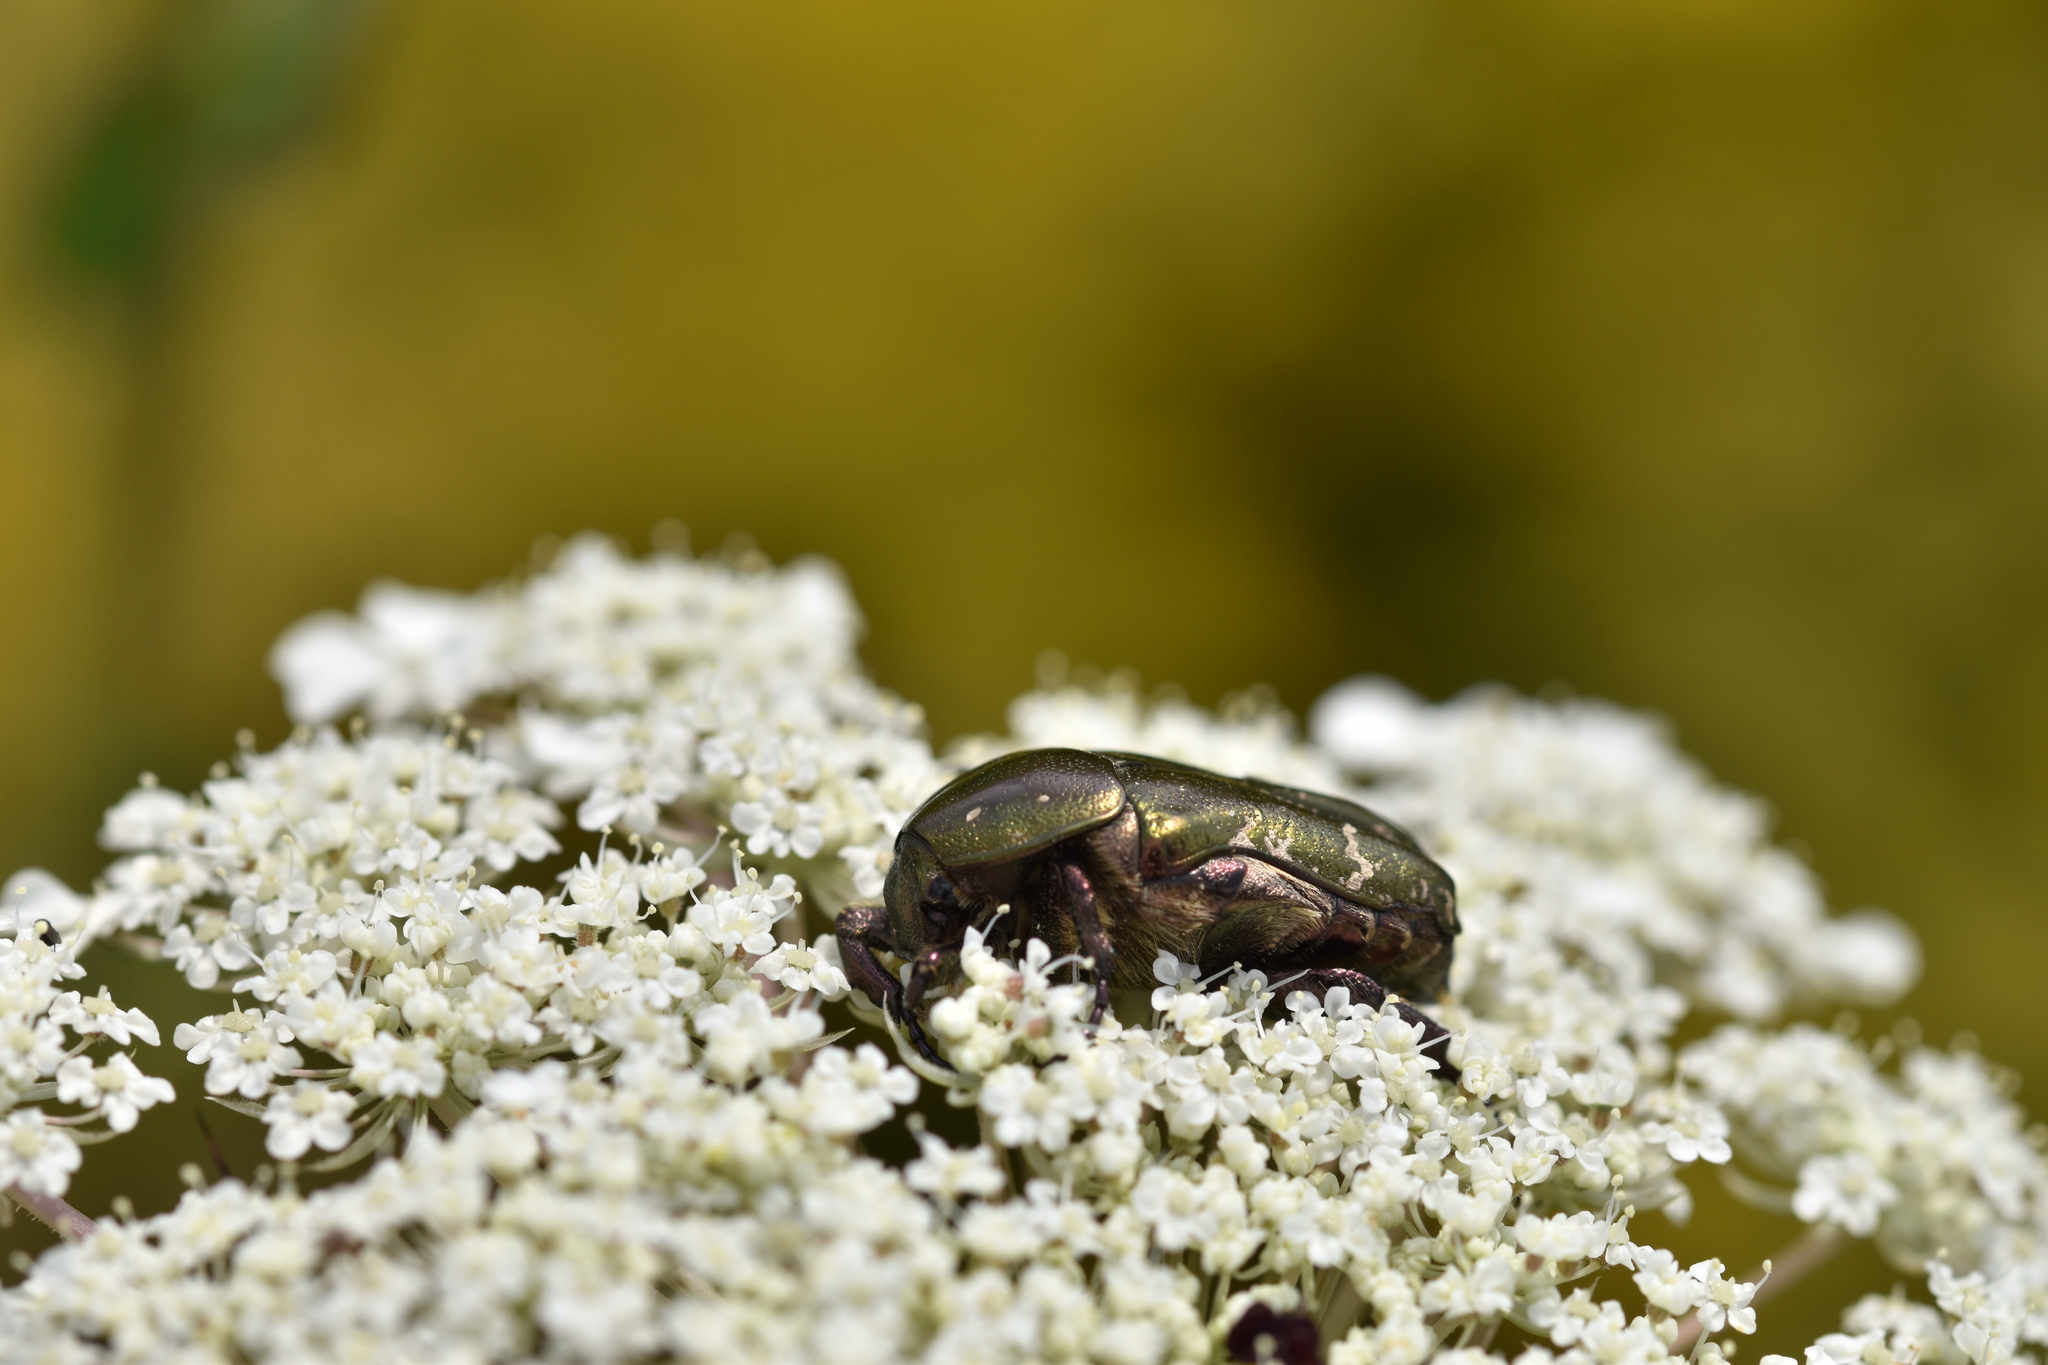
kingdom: Animalia
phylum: Arthropoda
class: Insecta
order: Coleoptera
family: Scarabaeidae
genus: Protaetia
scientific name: Protaetia cuprea
